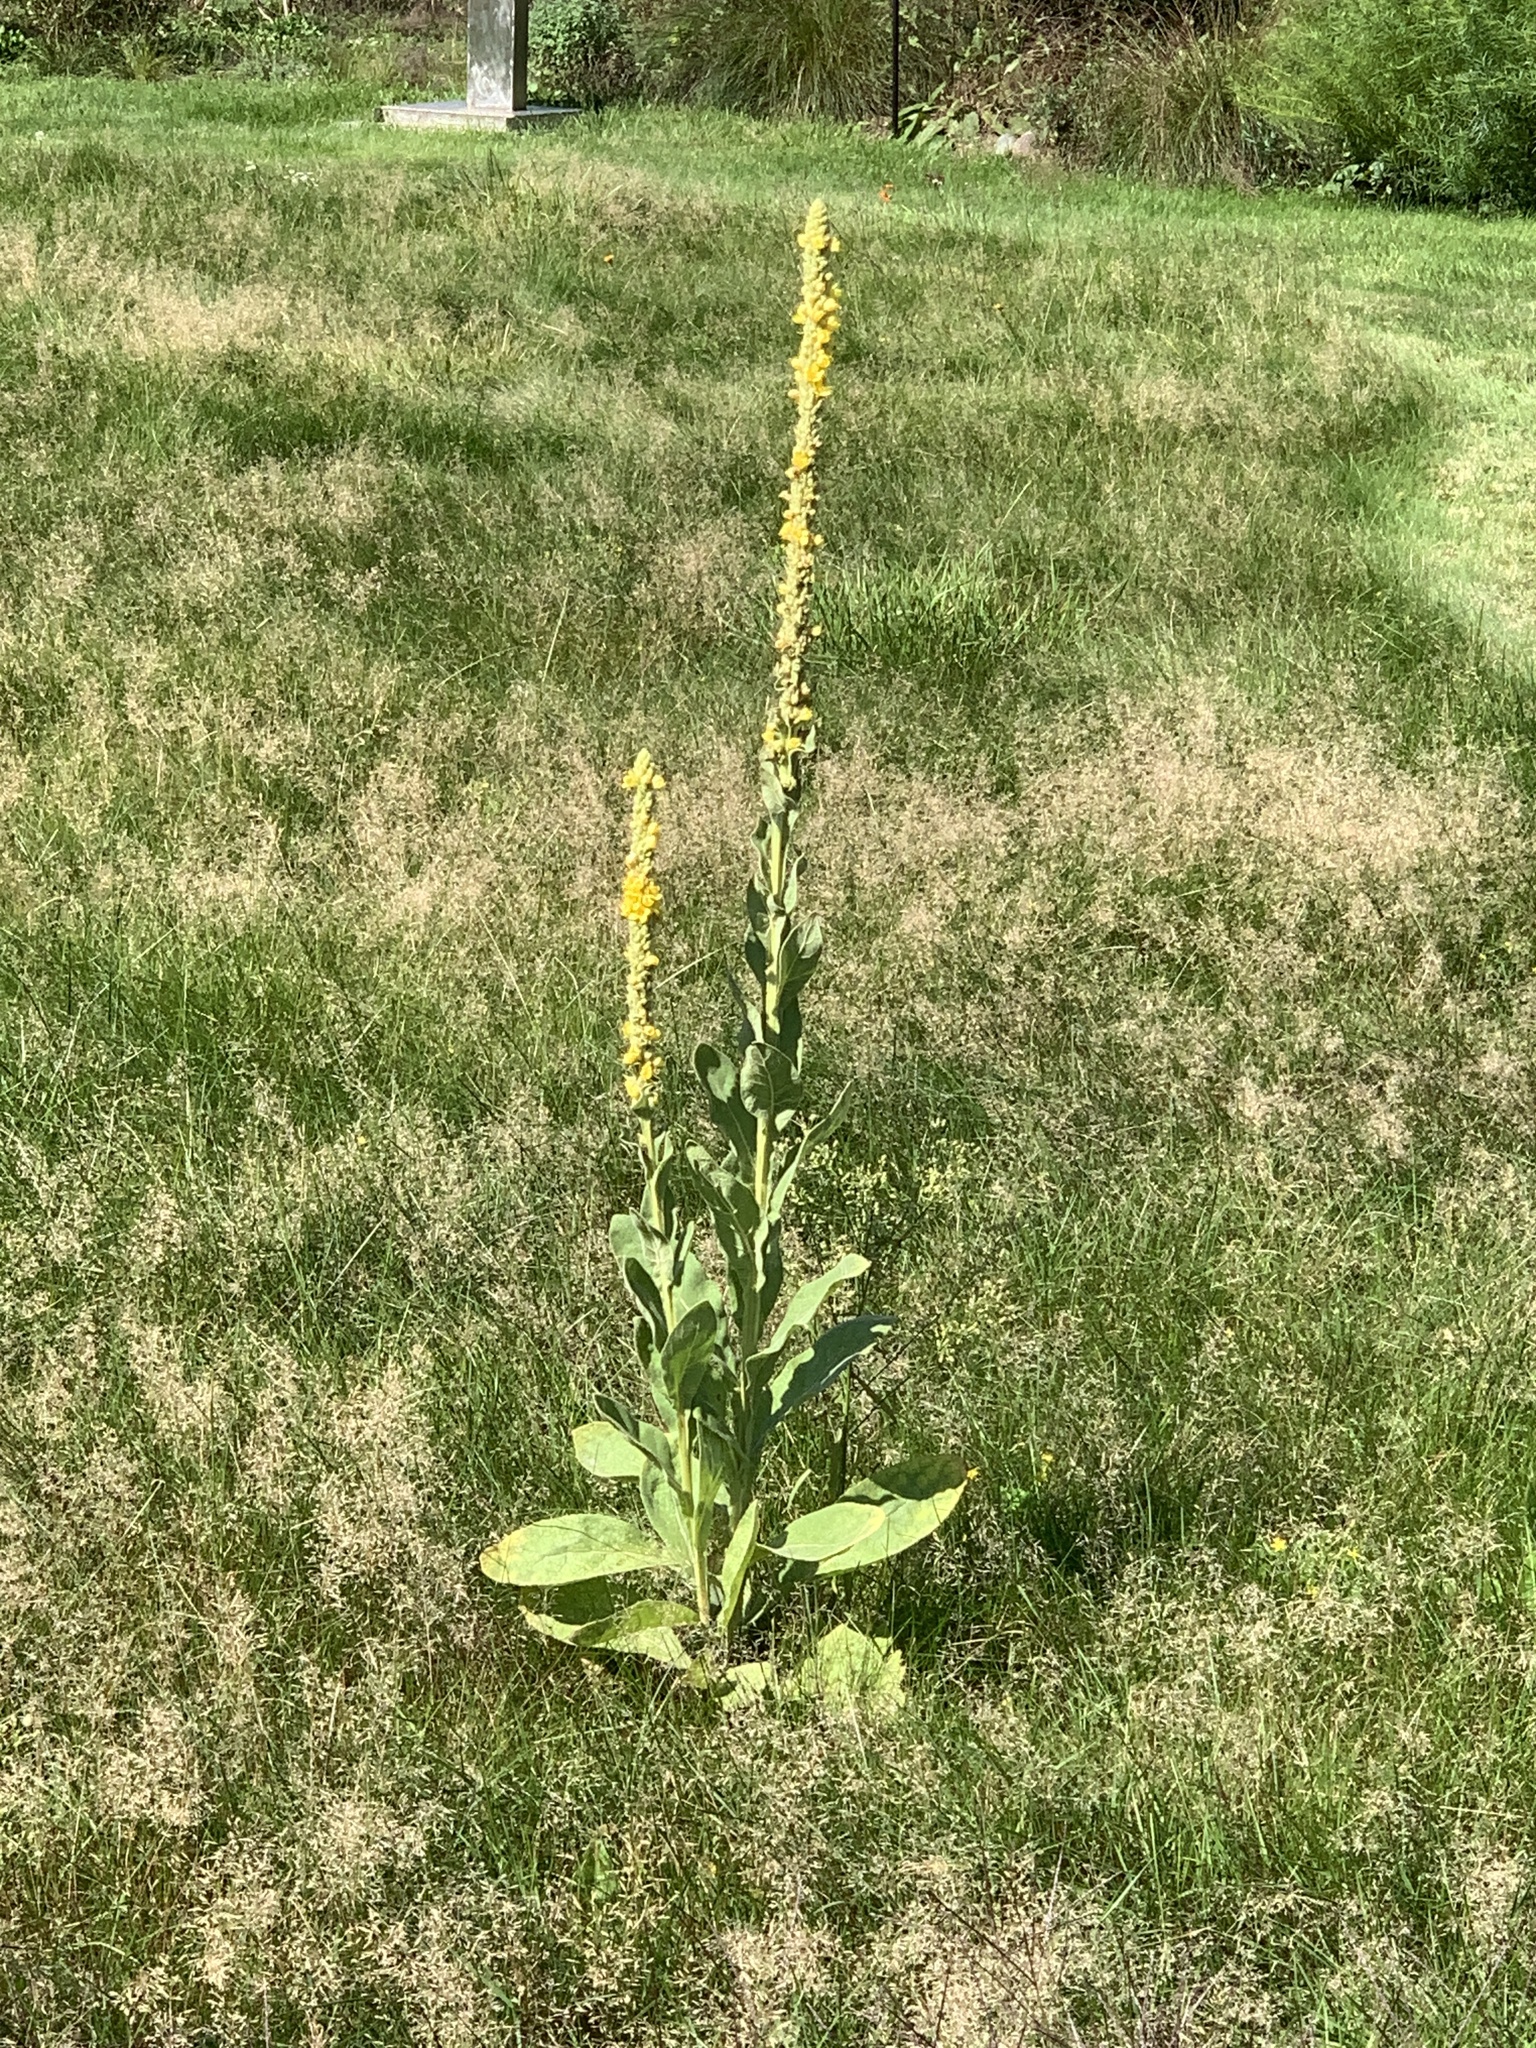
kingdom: Plantae
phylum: Tracheophyta
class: Magnoliopsida
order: Lamiales
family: Scrophulariaceae
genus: Verbascum
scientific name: Verbascum thapsus
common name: Common mullein
